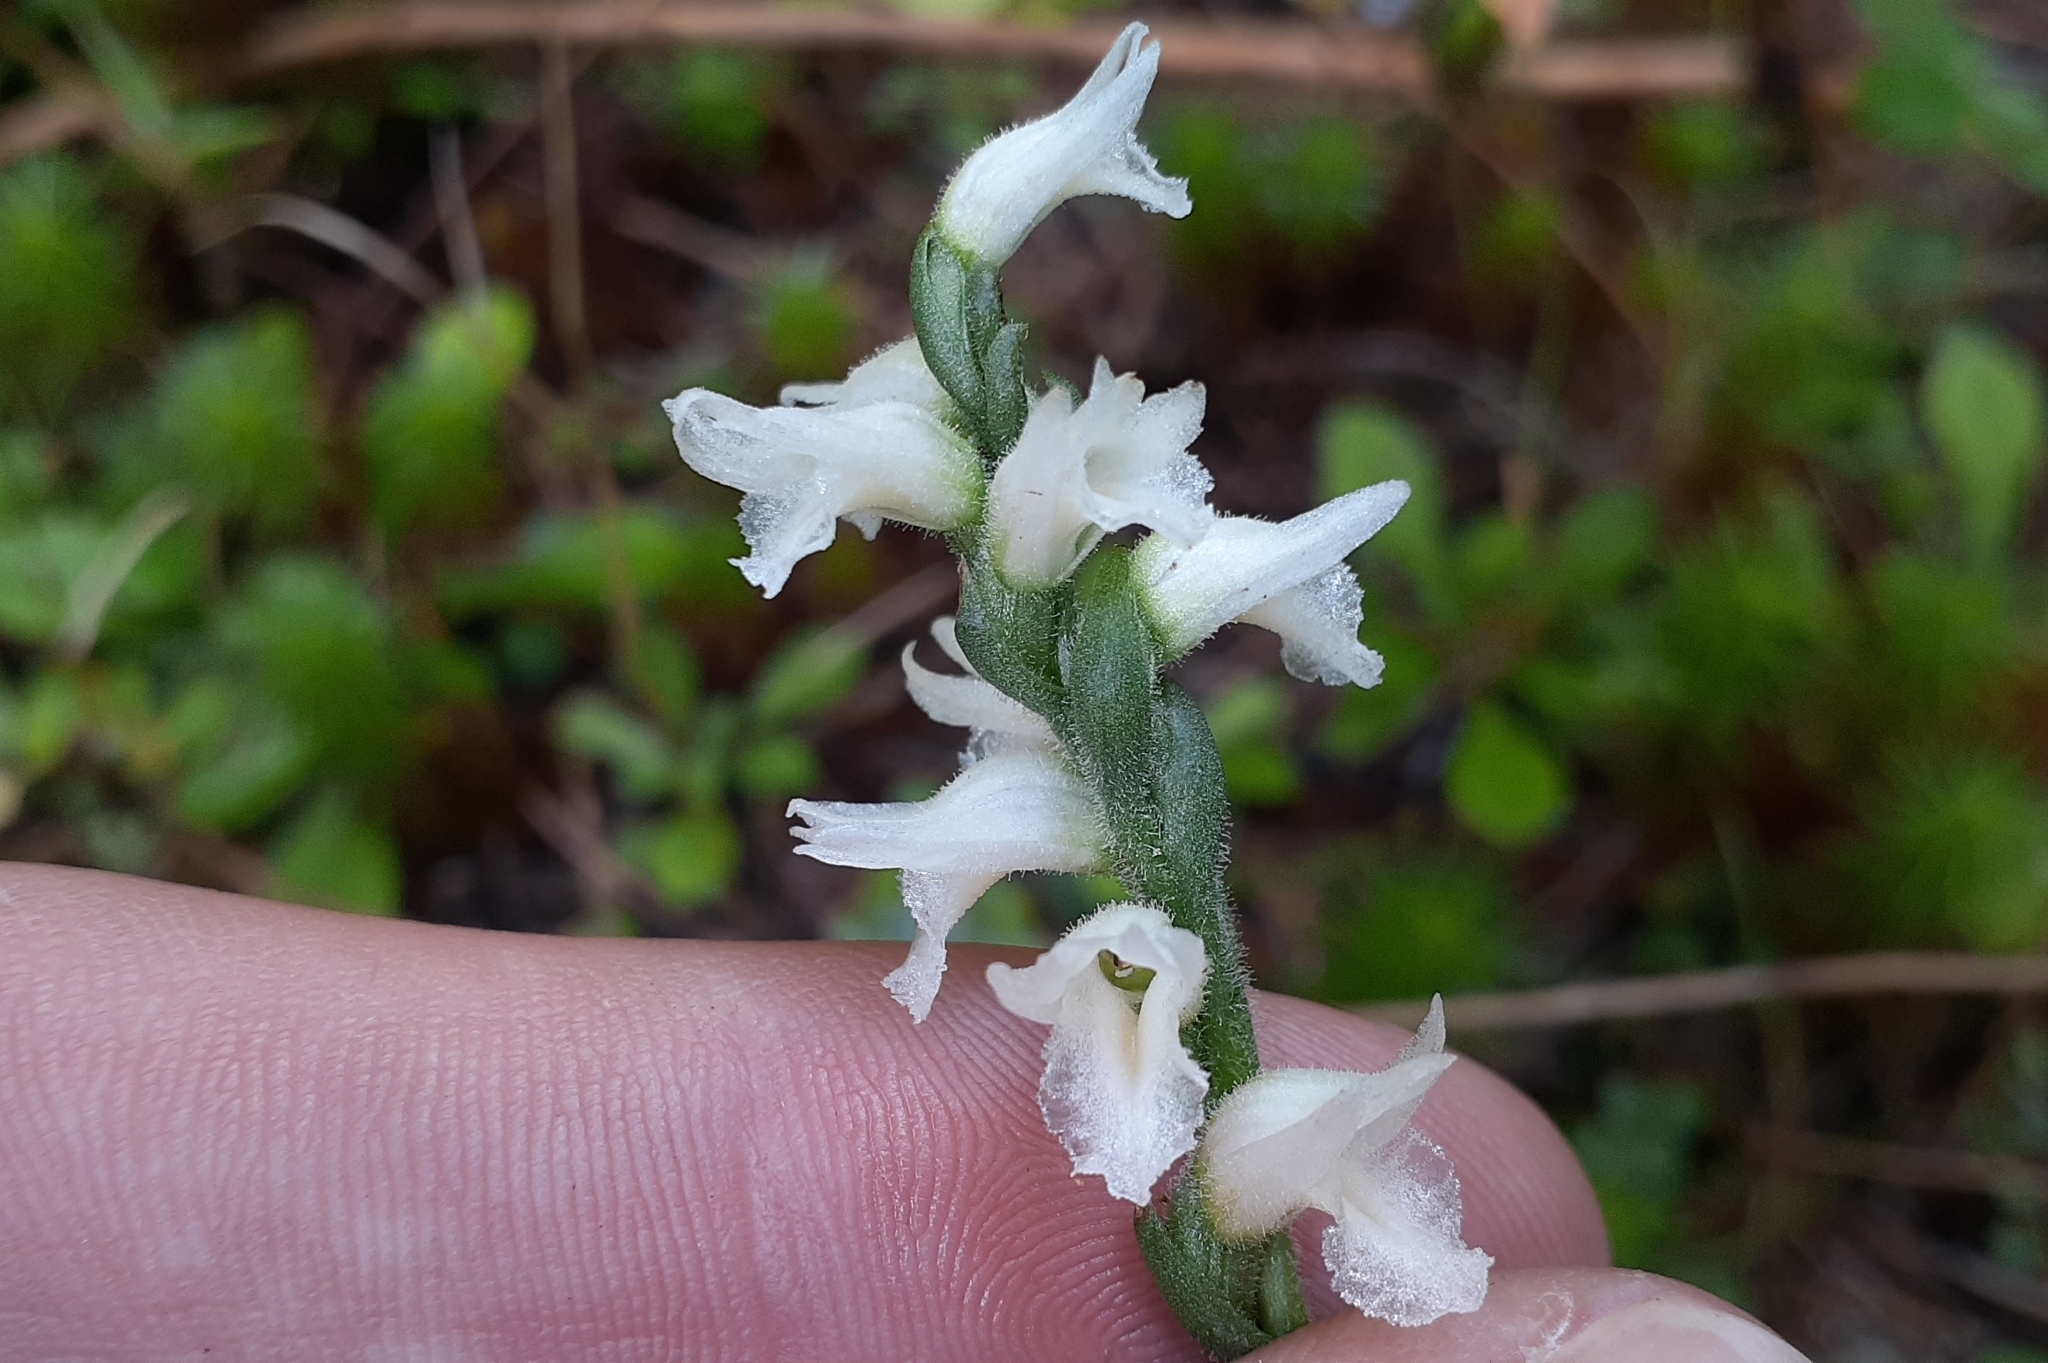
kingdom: Plantae
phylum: Tracheophyta
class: Liliopsida
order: Asparagales
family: Orchidaceae
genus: Spiranthes
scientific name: Spiranthes incurva
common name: Sphinx ladies'-tresses
